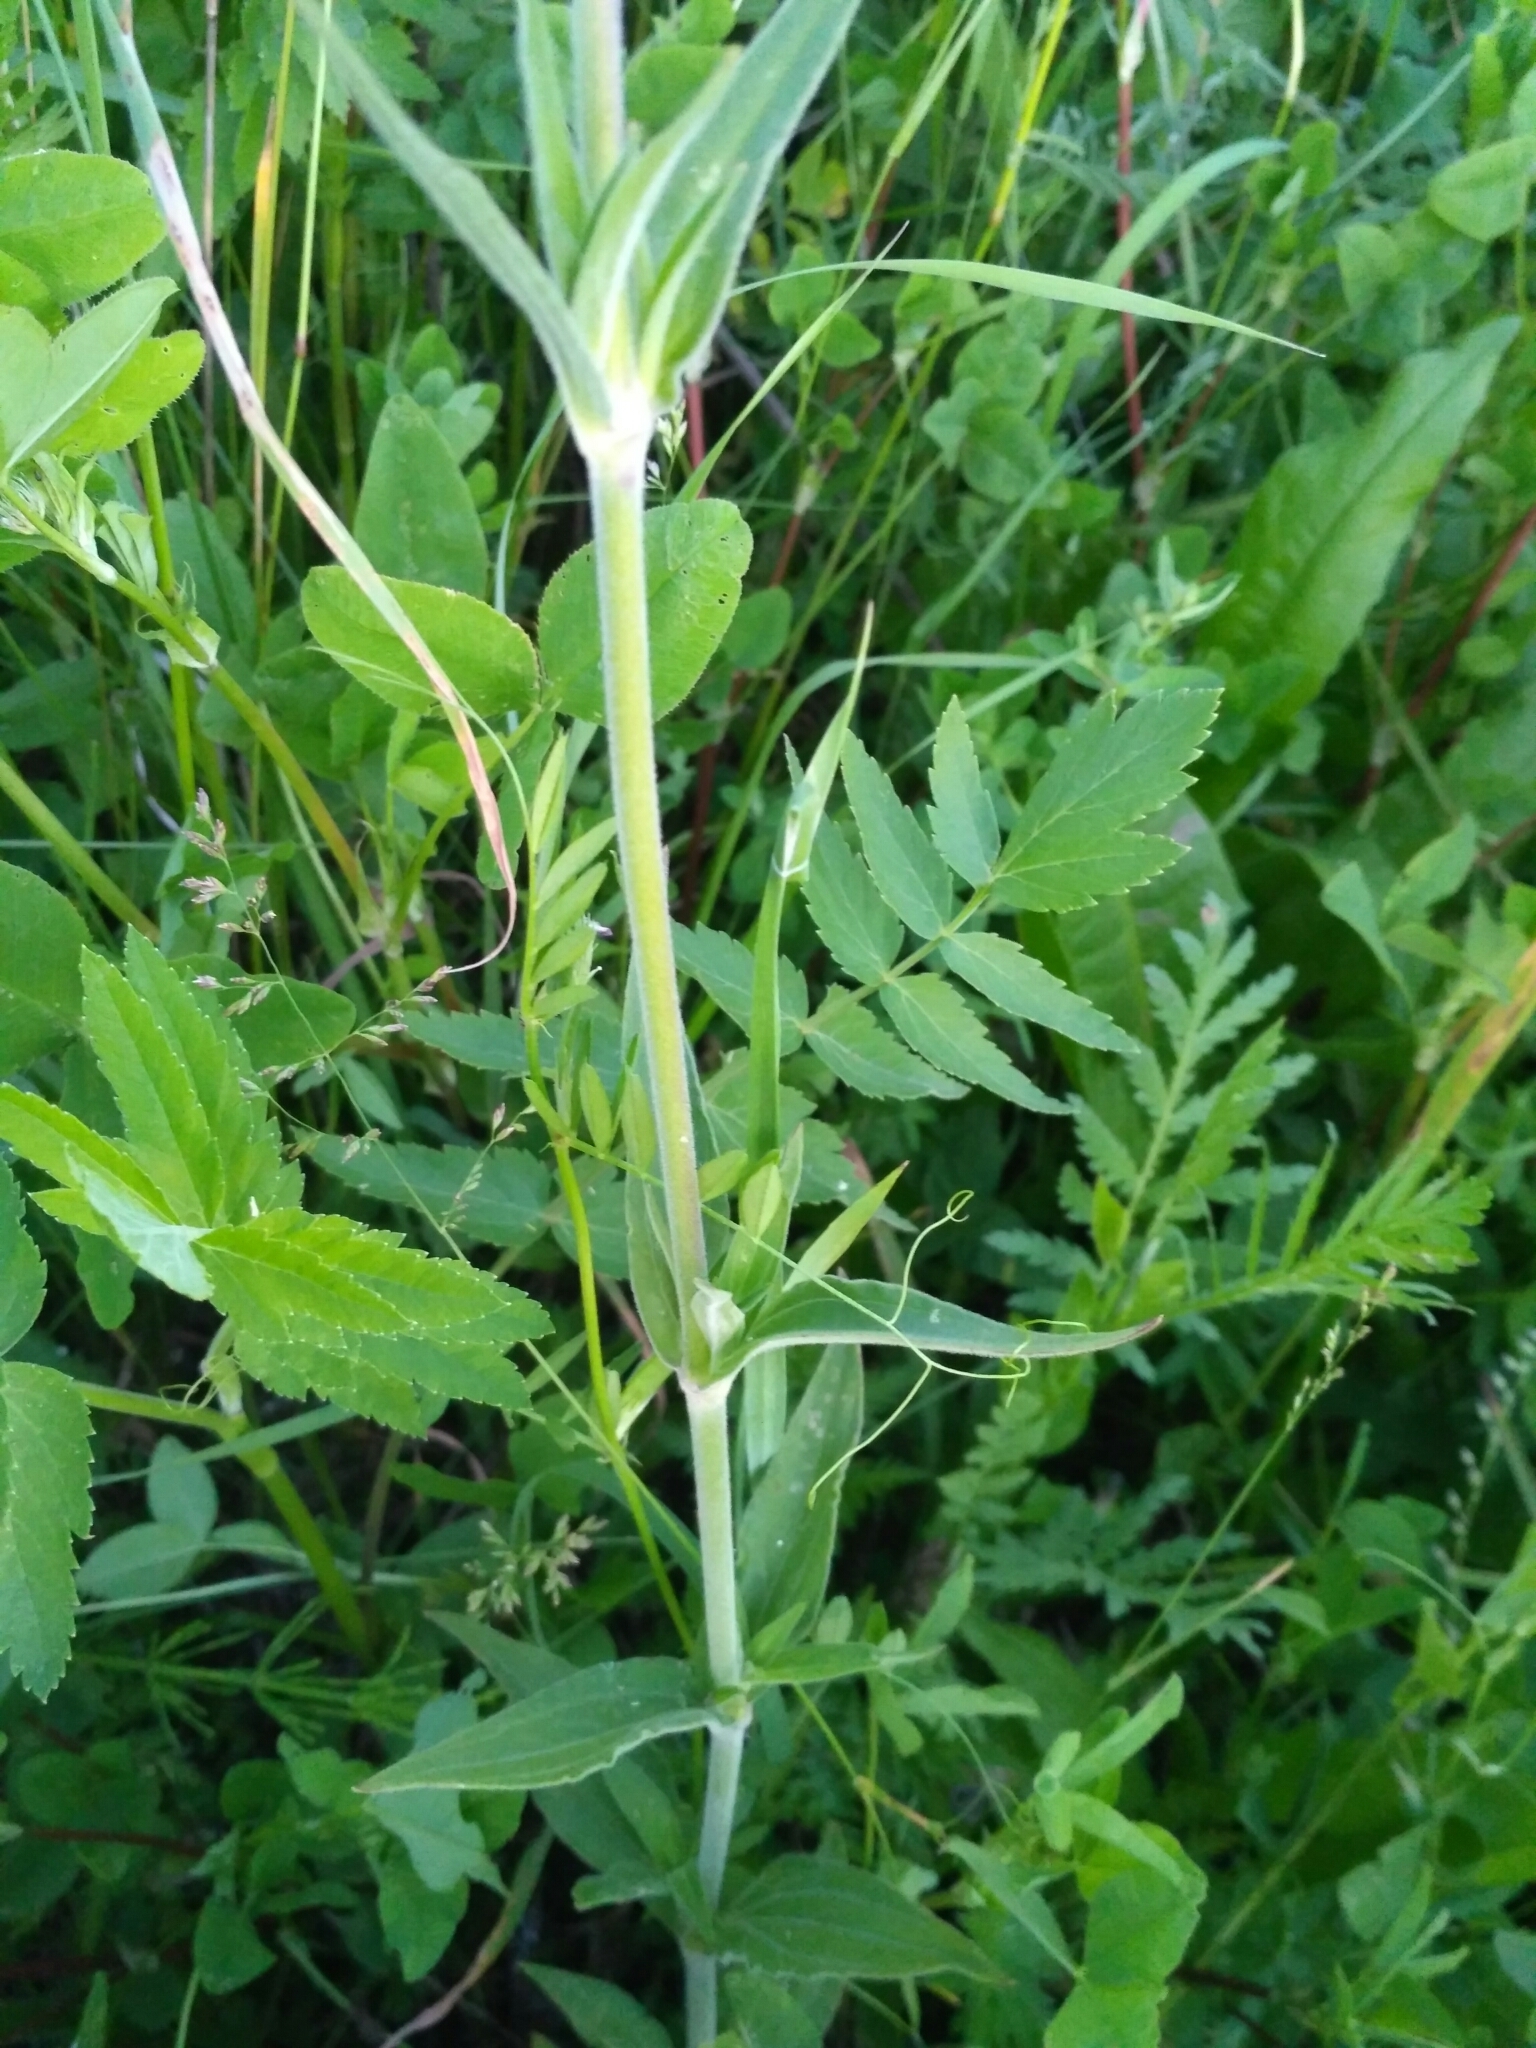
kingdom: Plantae
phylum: Tracheophyta
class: Magnoliopsida
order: Caryophyllales
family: Caryophyllaceae
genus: Silene
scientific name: Silene latifolia
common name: White campion
